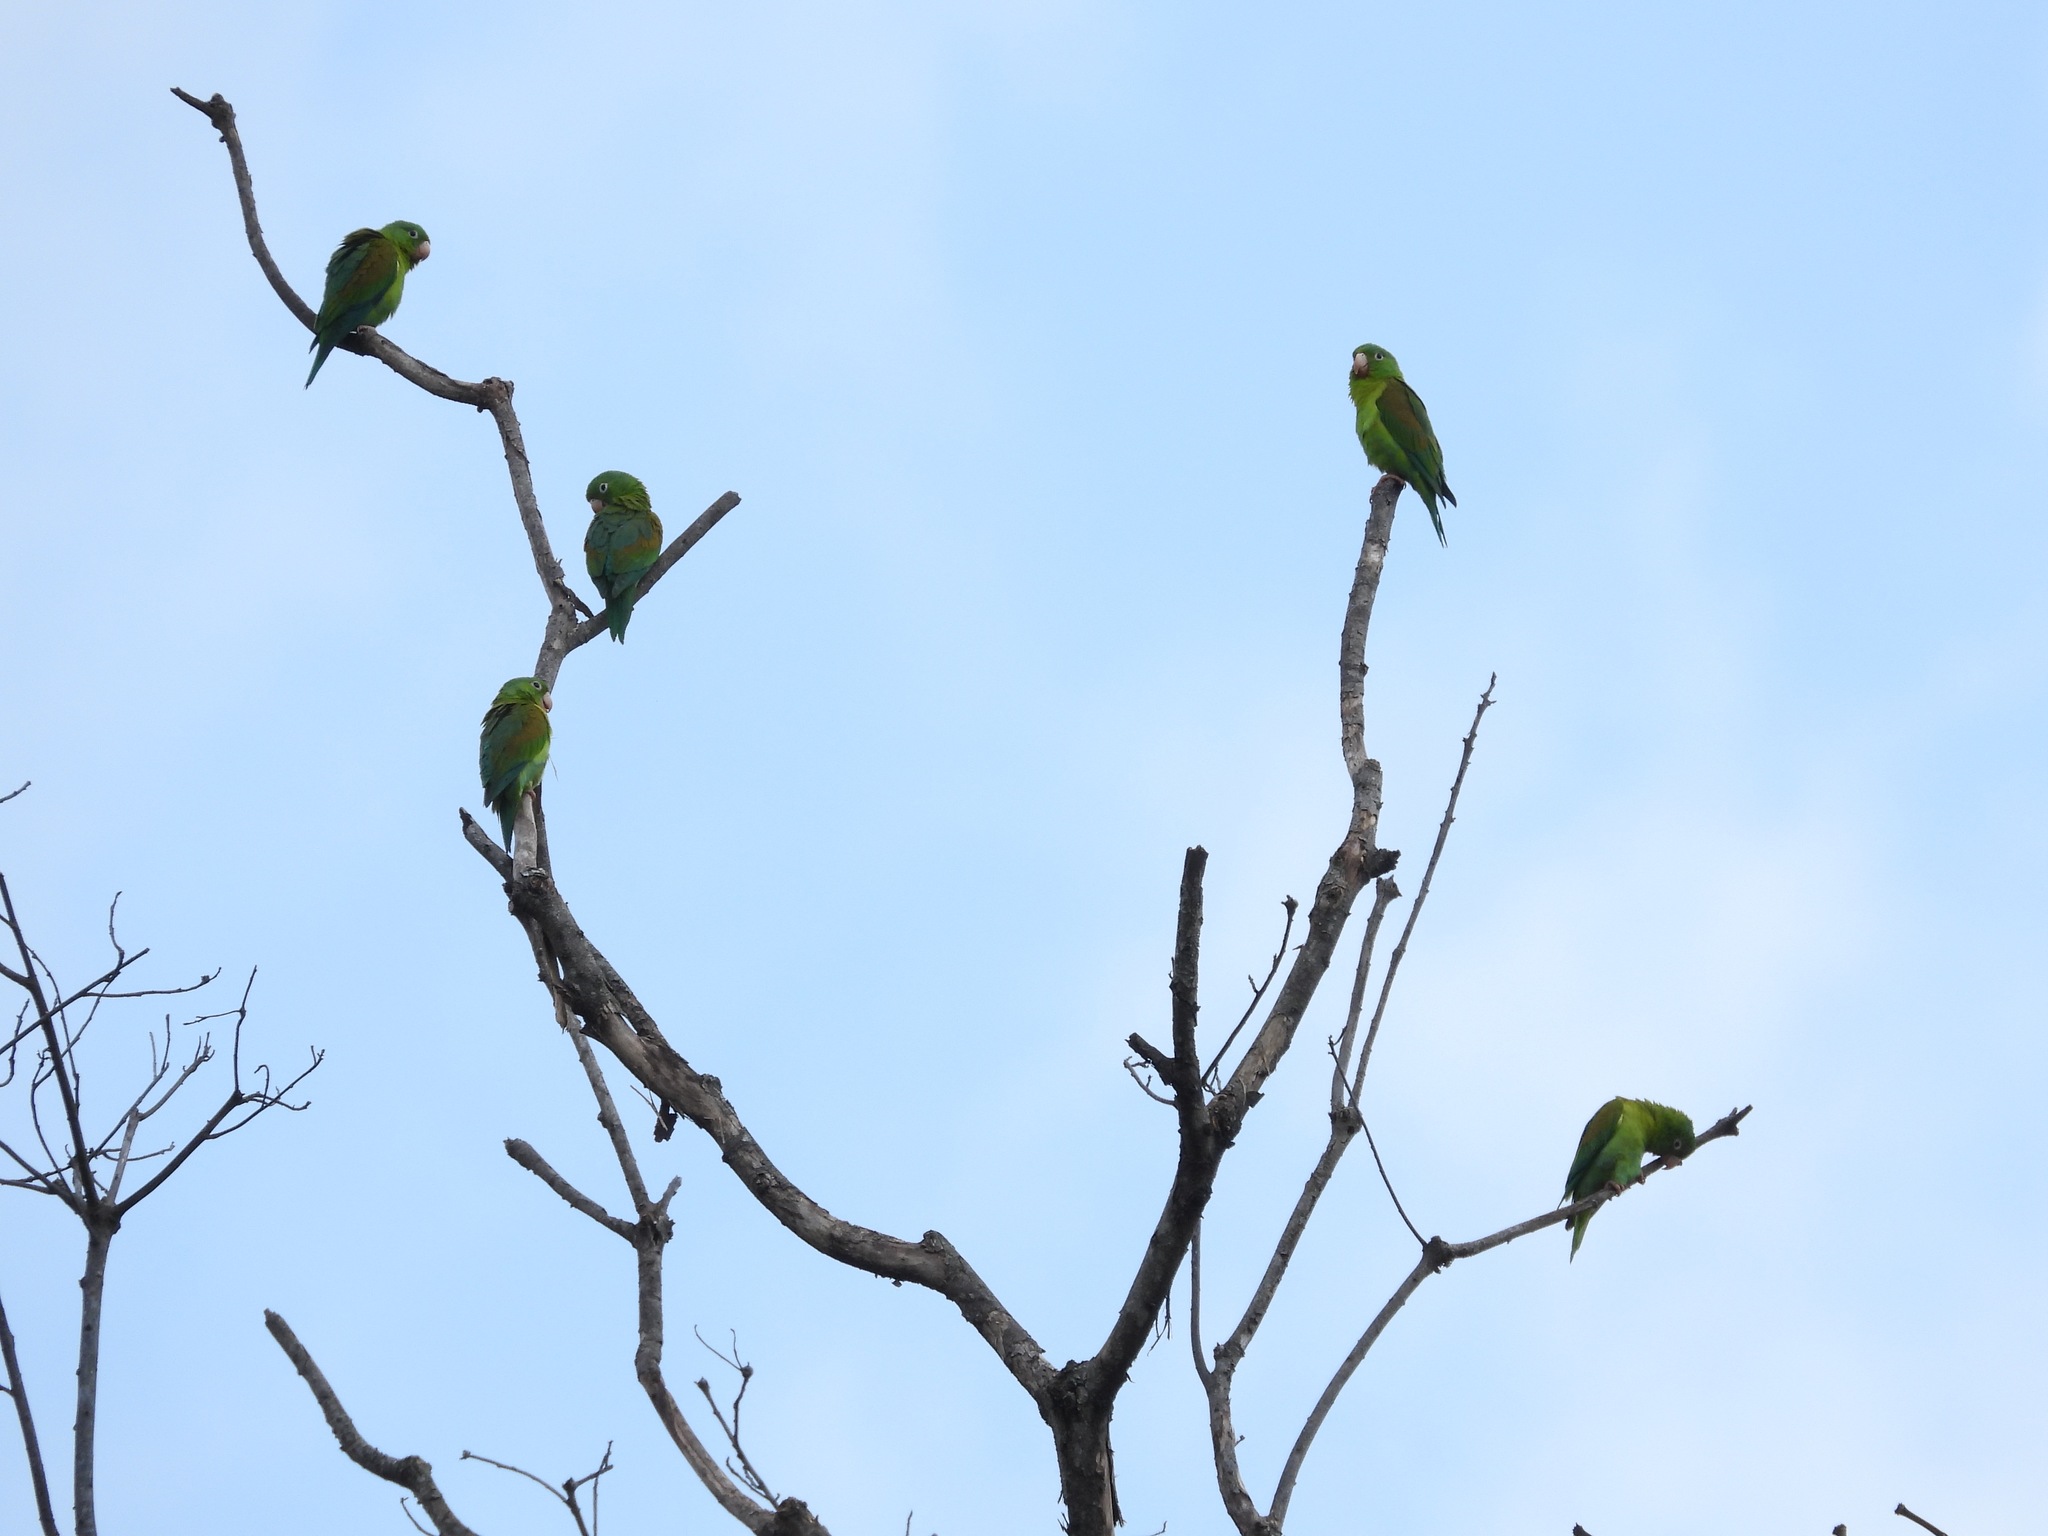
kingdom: Animalia
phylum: Chordata
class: Aves
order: Psittaciformes
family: Psittacidae
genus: Brotogeris
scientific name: Brotogeris jugularis
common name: Orange-chinned parakeet
